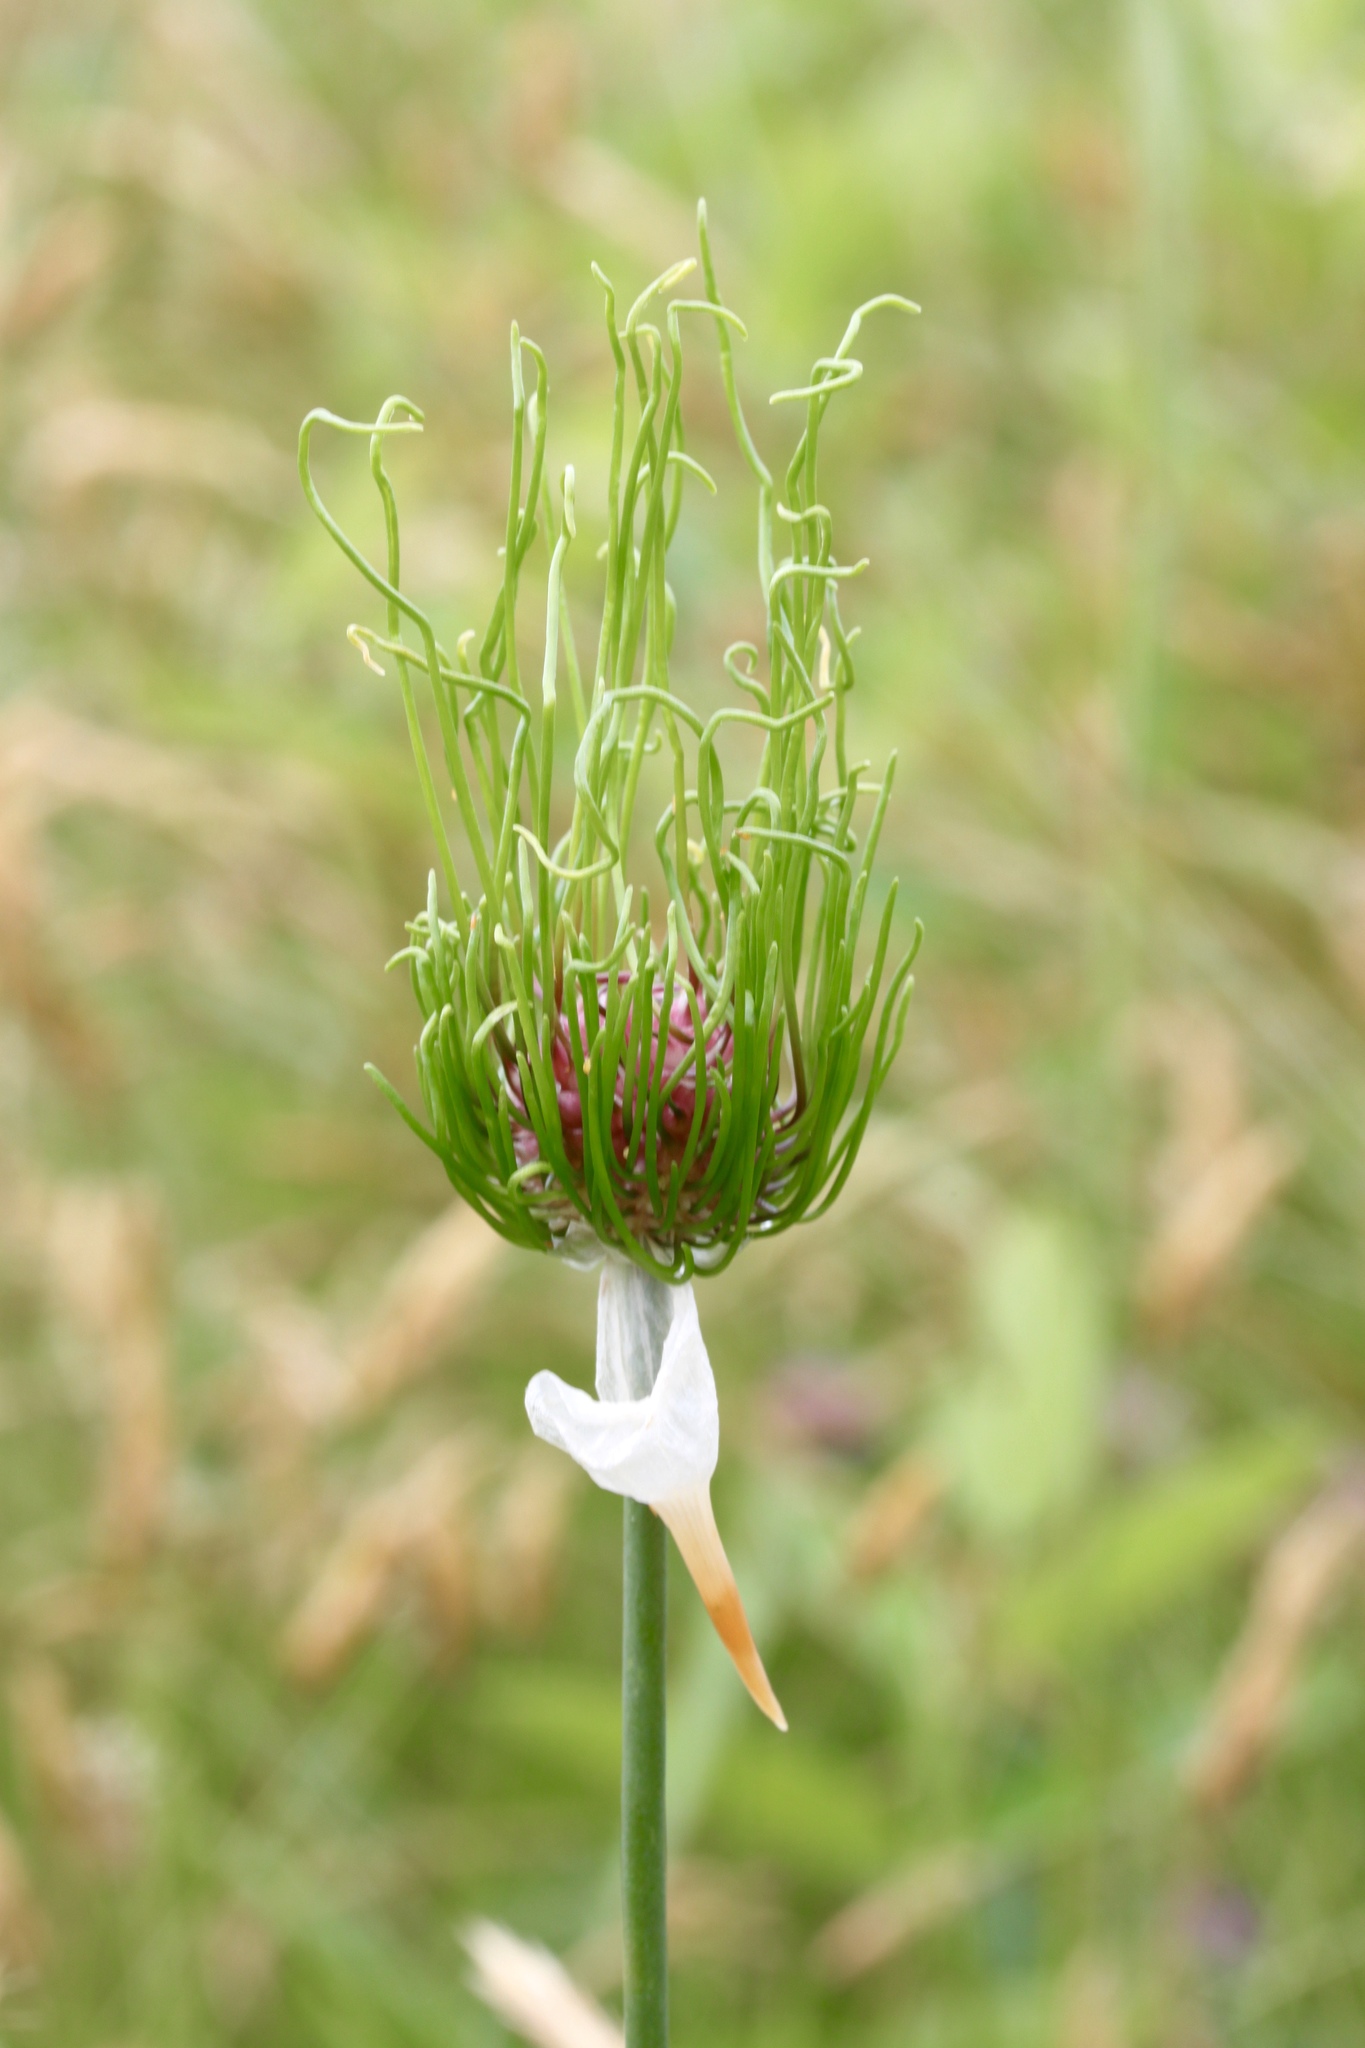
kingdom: Plantae
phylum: Tracheophyta
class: Liliopsida
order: Asparagales
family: Amaryllidaceae
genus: Allium
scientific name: Allium vineale
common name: Crow garlic
